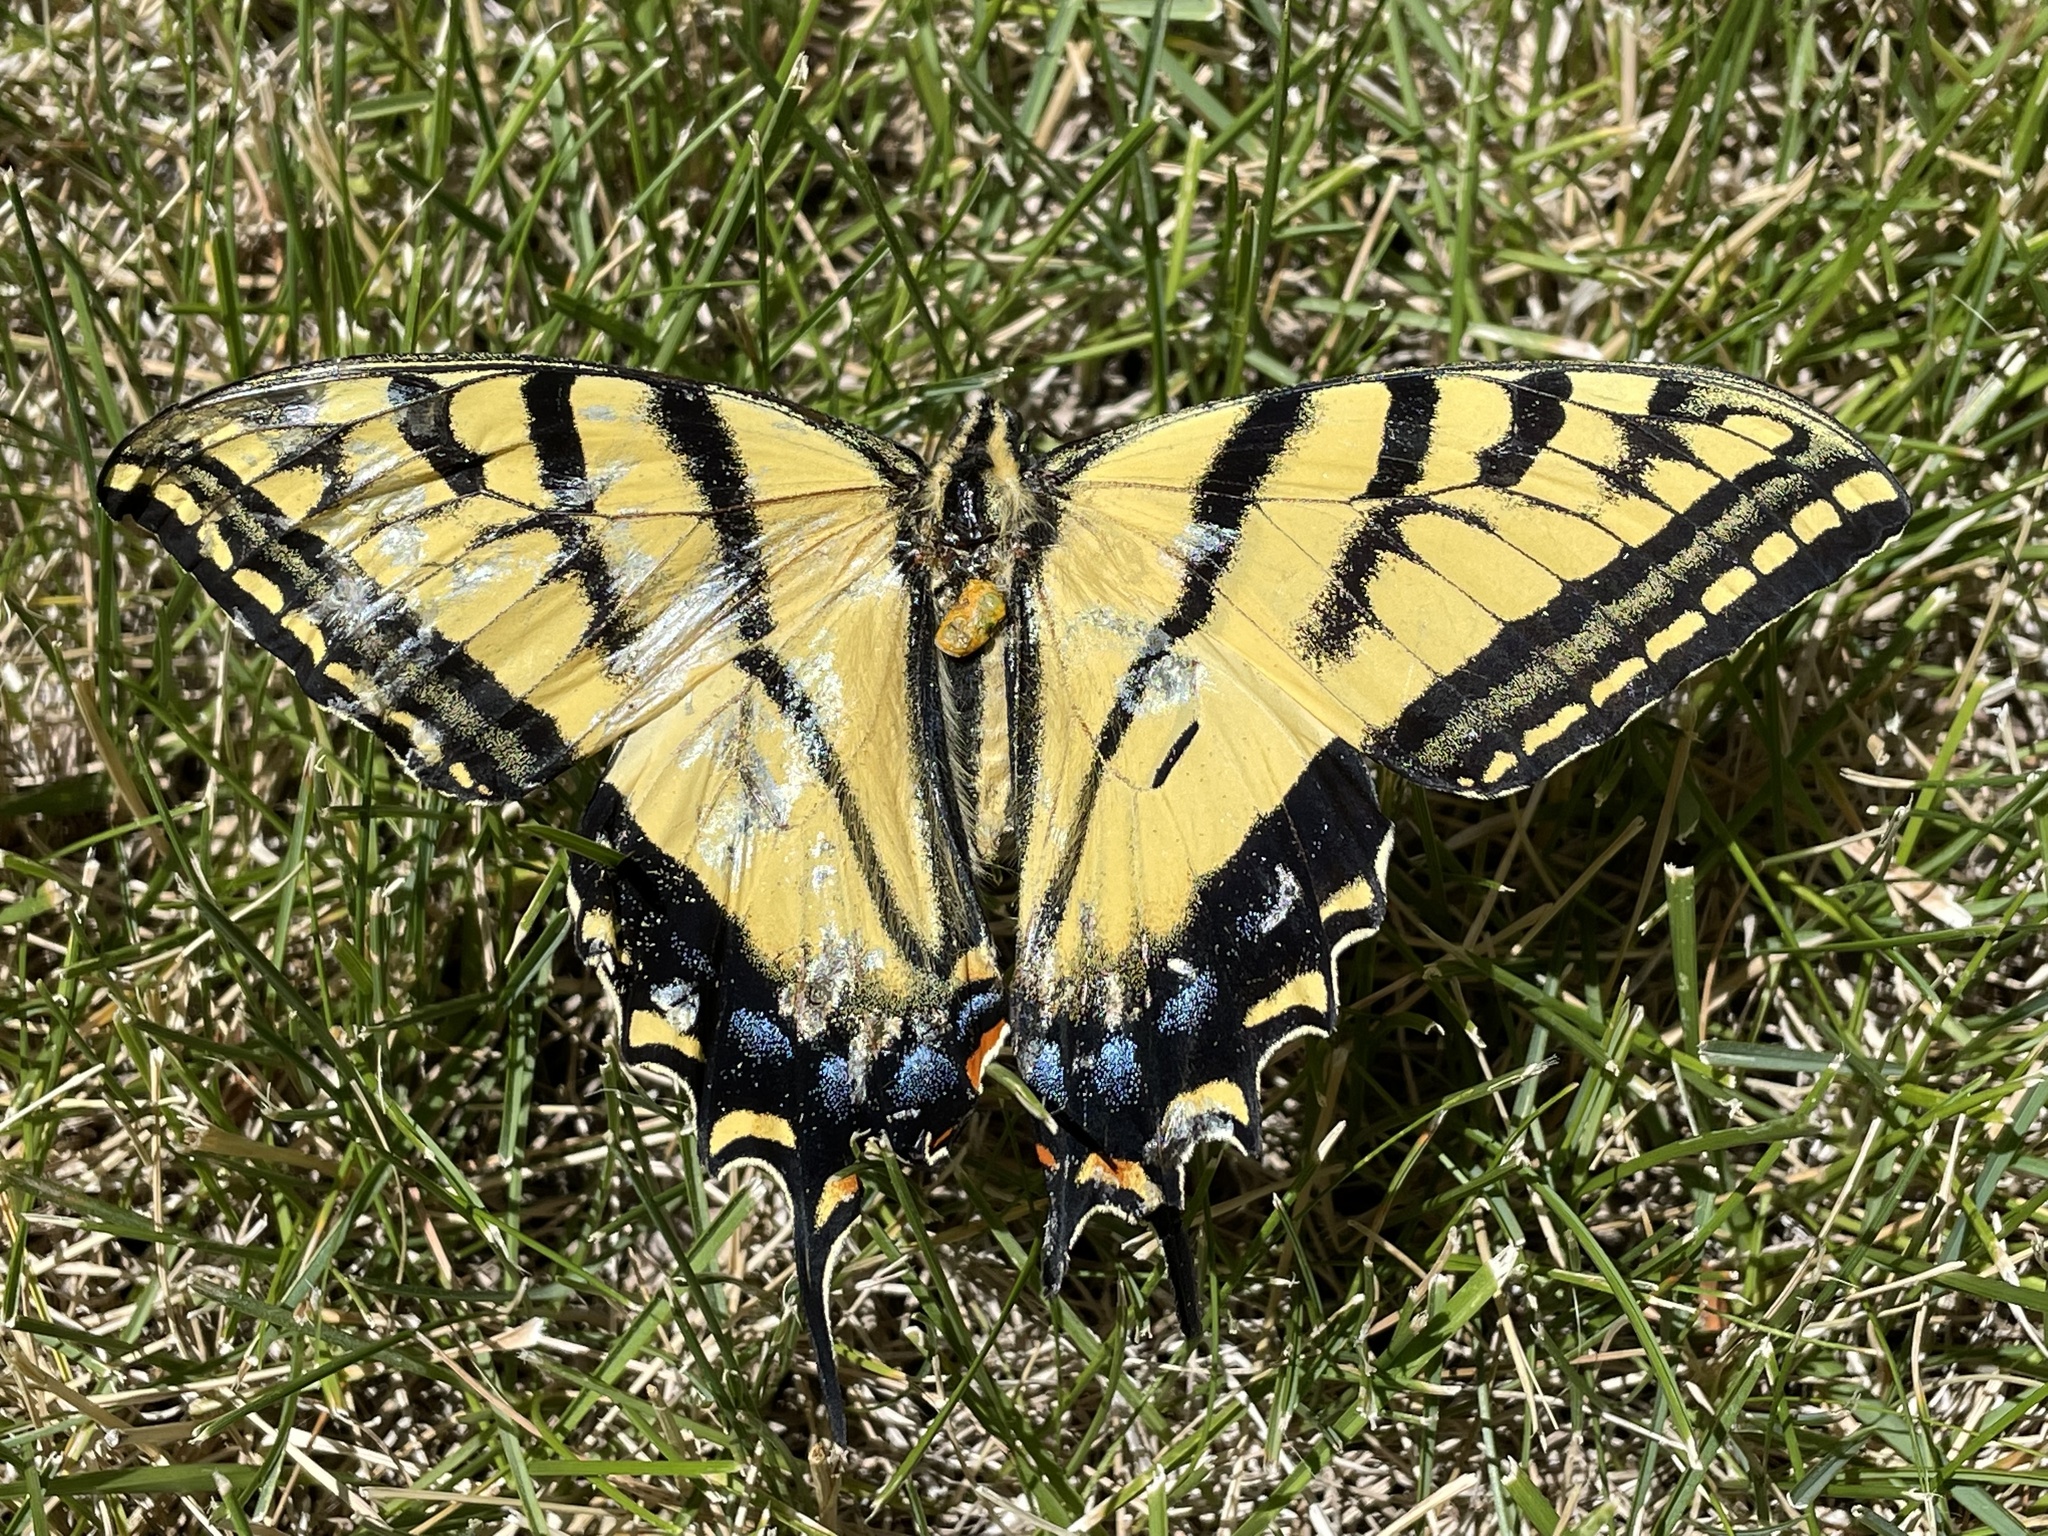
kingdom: Animalia
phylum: Arthropoda
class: Insecta
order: Lepidoptera
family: Papilionidae
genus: Papilio
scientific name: Papilio multicaudata
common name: Two-tailed tiger swallowtail
